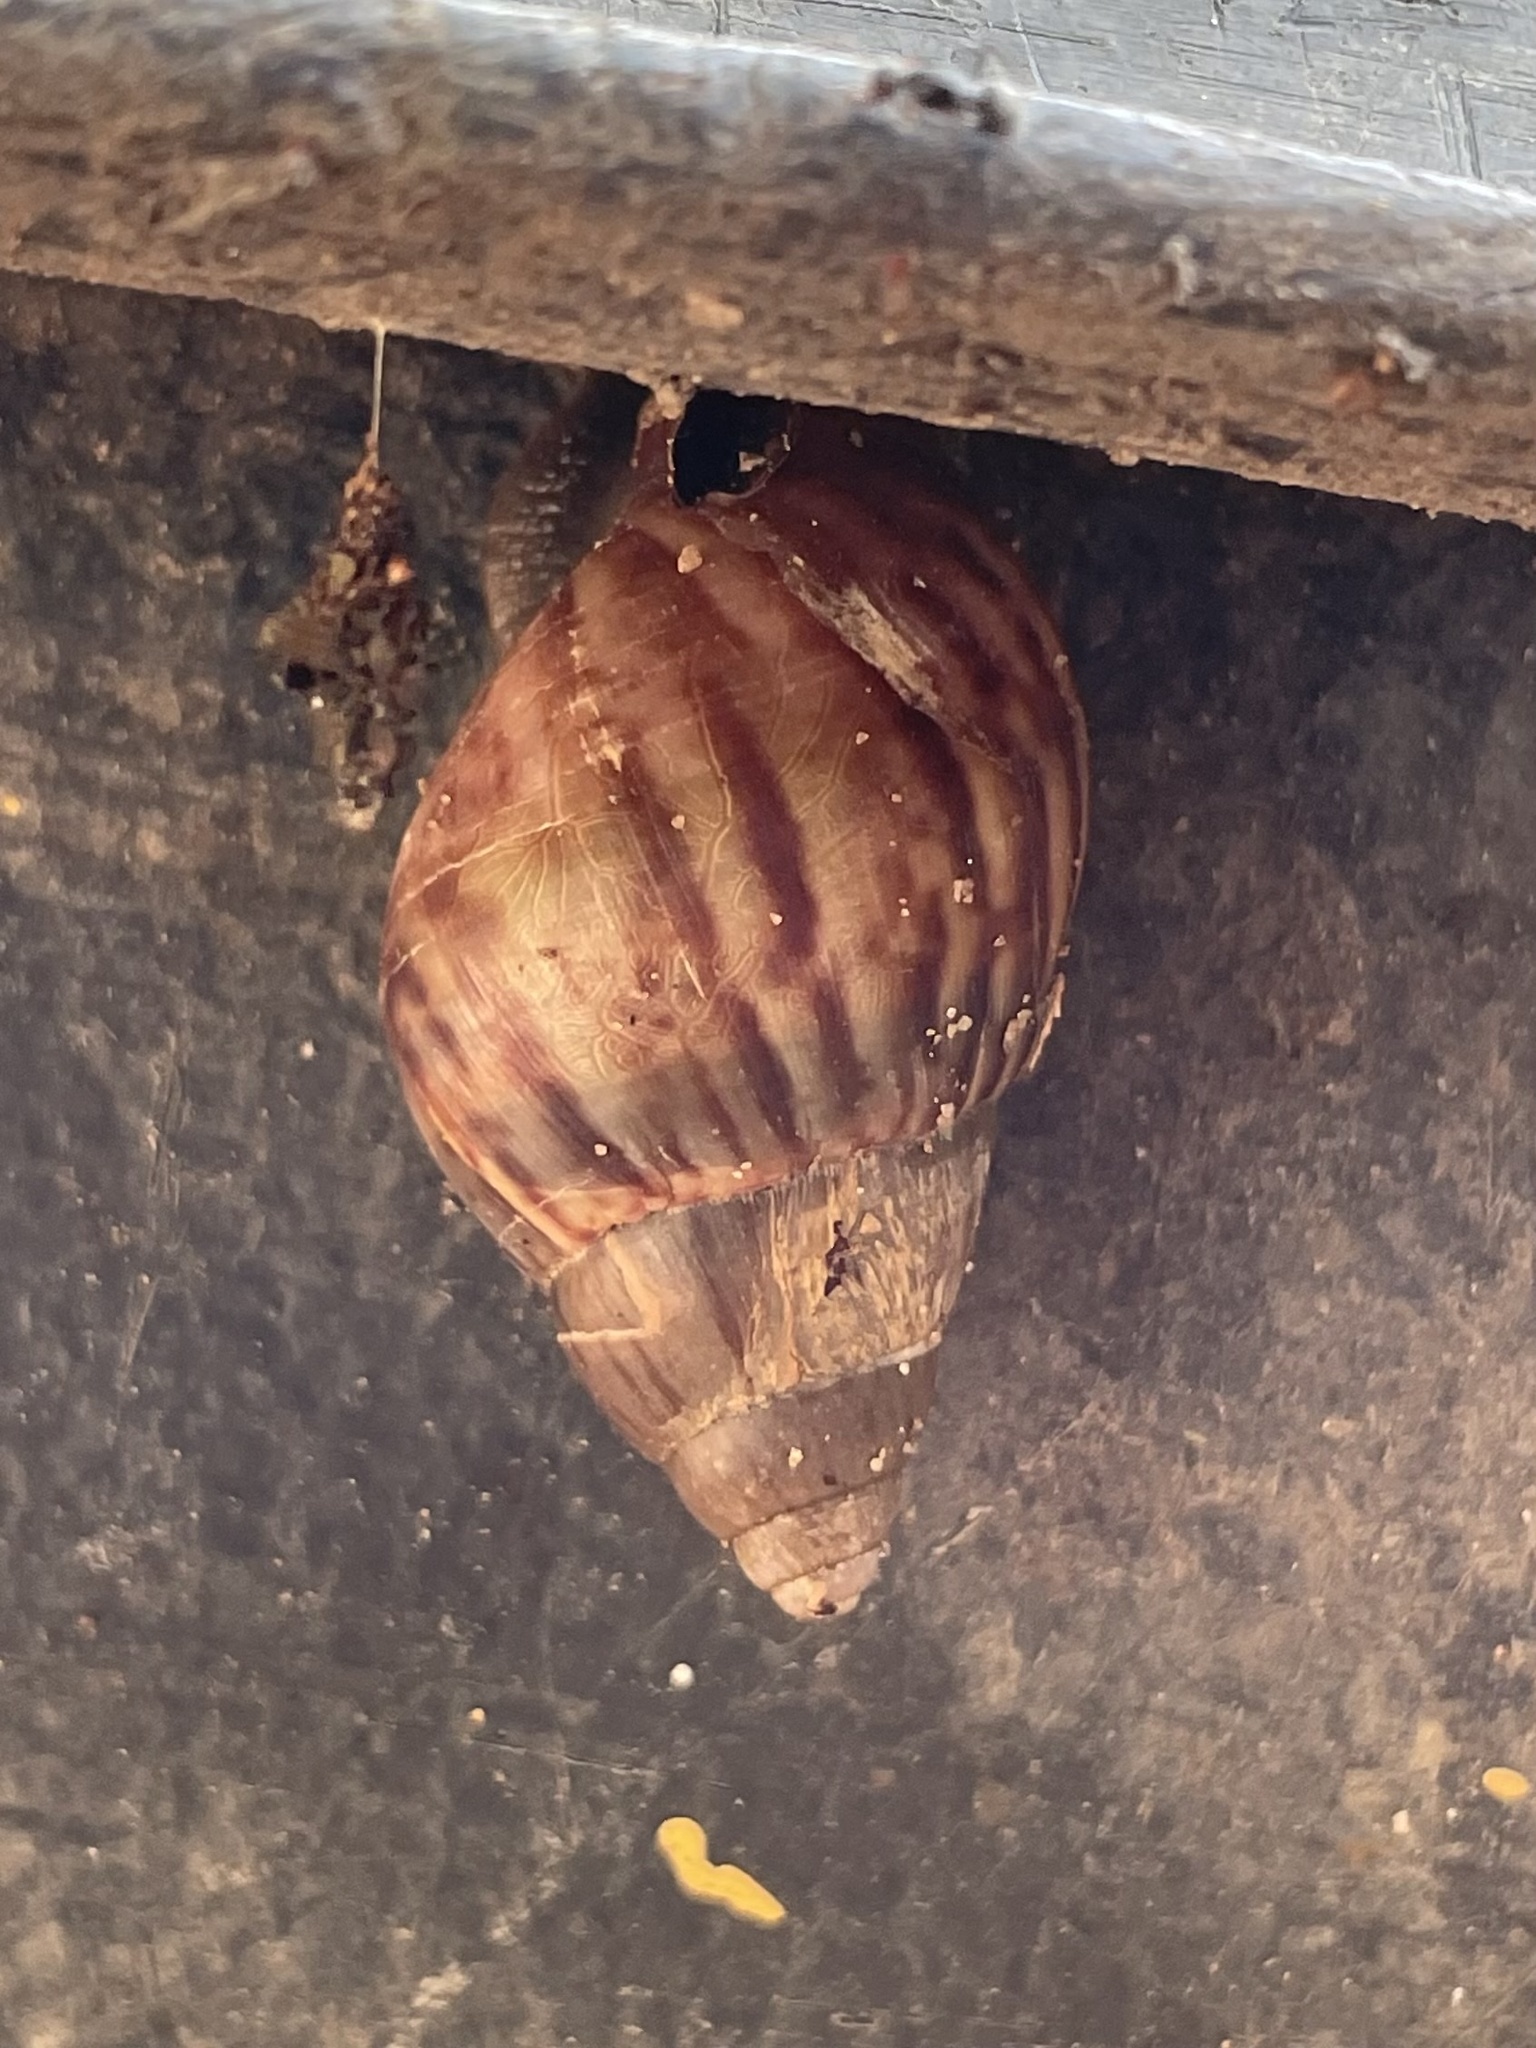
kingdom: Animalia
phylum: Mollusca
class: Gastropoda
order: Stylommatophora
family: Achatinidae
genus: Lissachatina
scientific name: Lissachatina fulica
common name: Giant african snail
